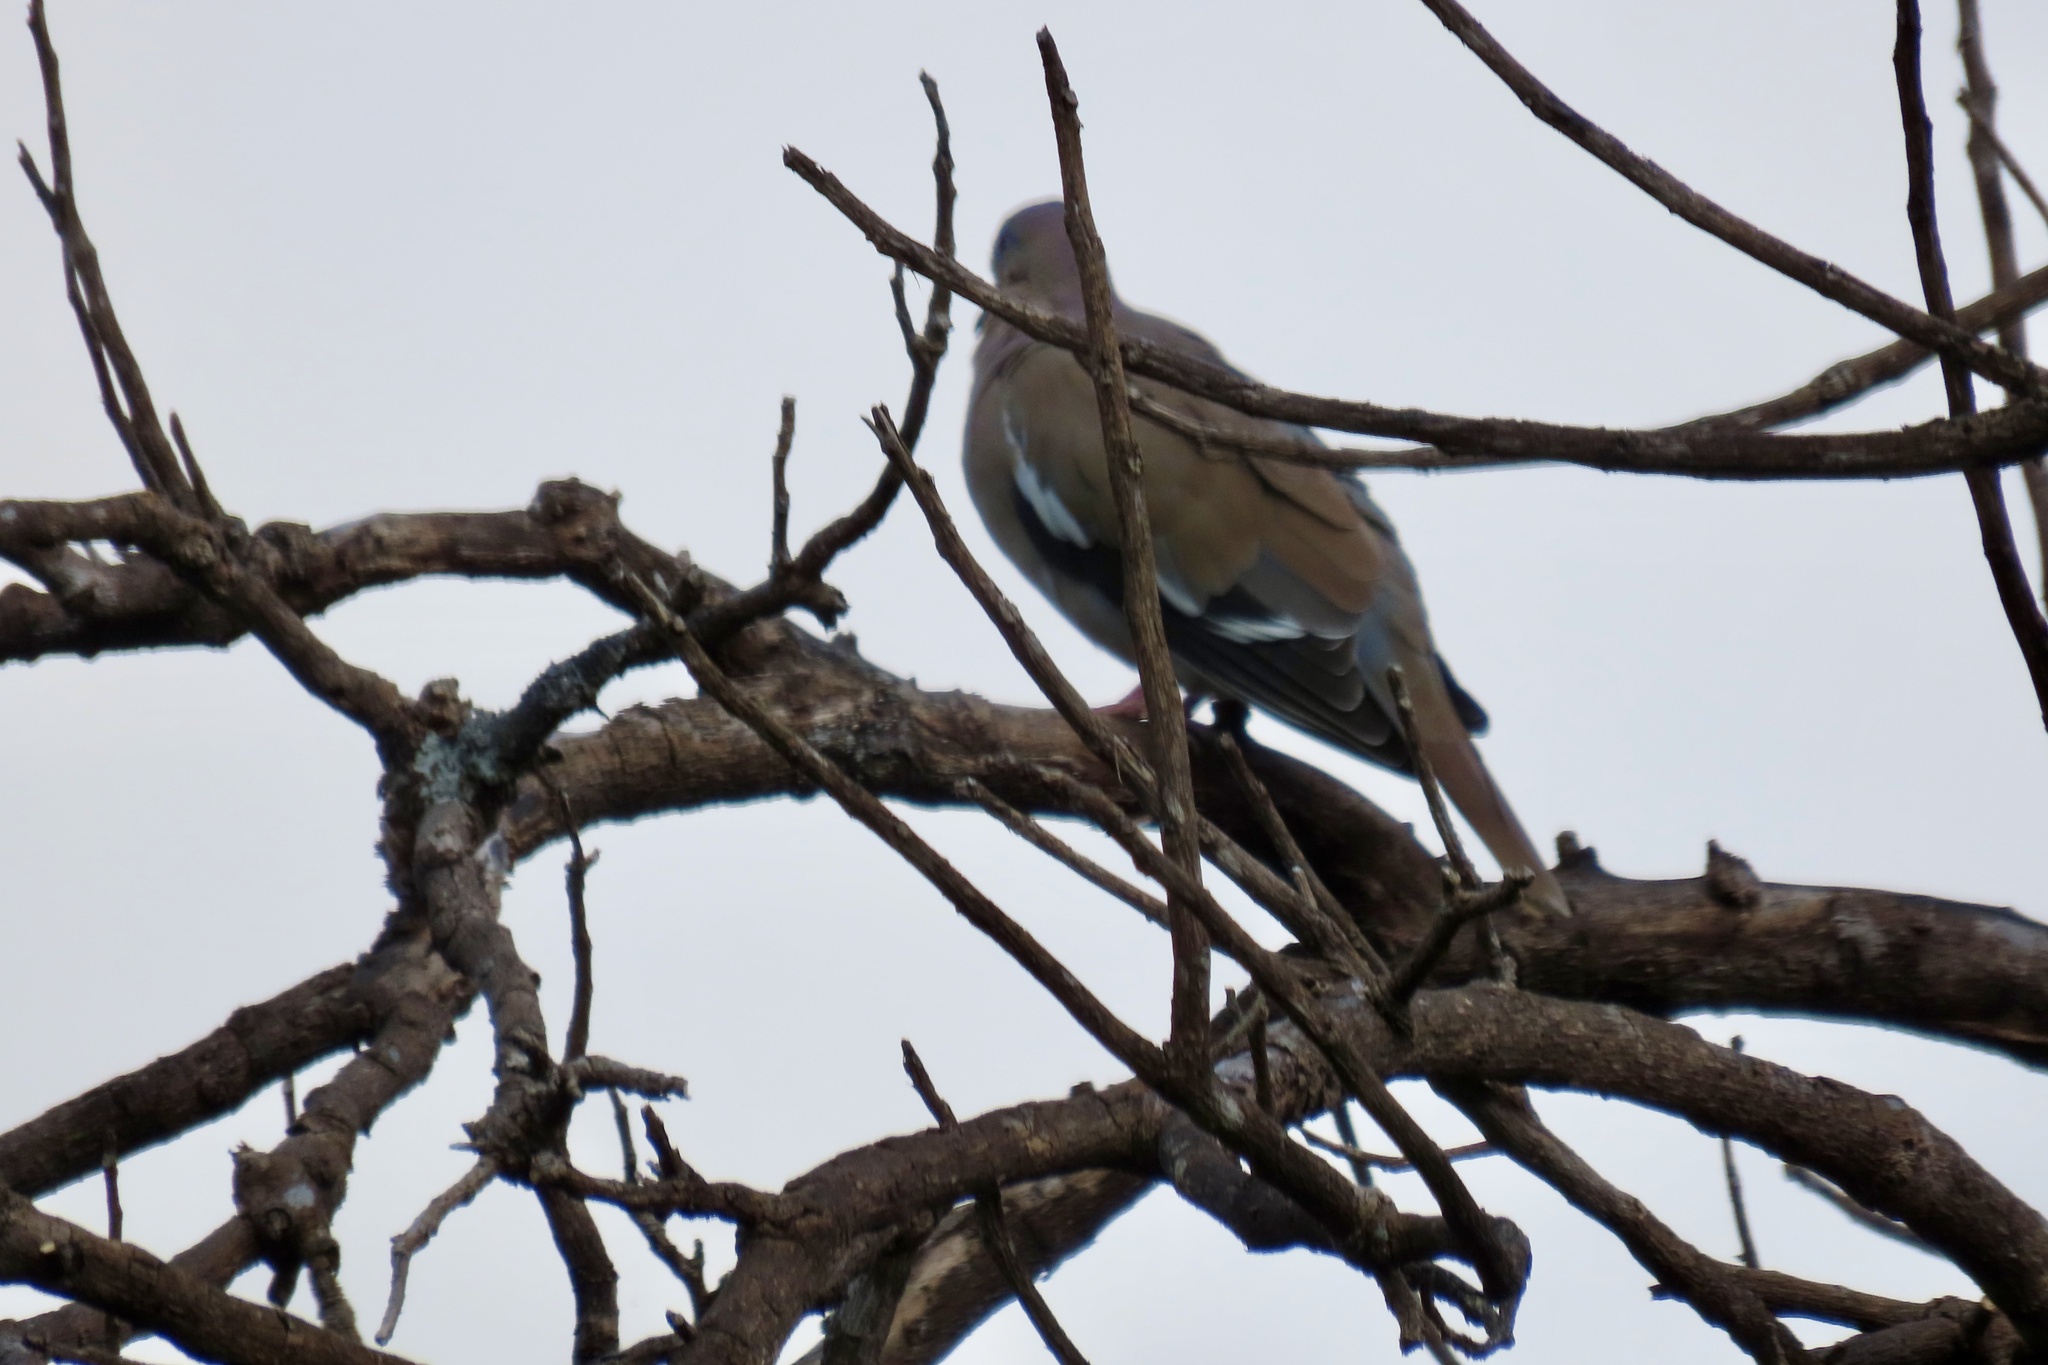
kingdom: Animalia
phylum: Chordata
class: Aves
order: Columbiformes
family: Columbidae
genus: Zenaida
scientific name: Zenaida asiatica
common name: White-winged dove
